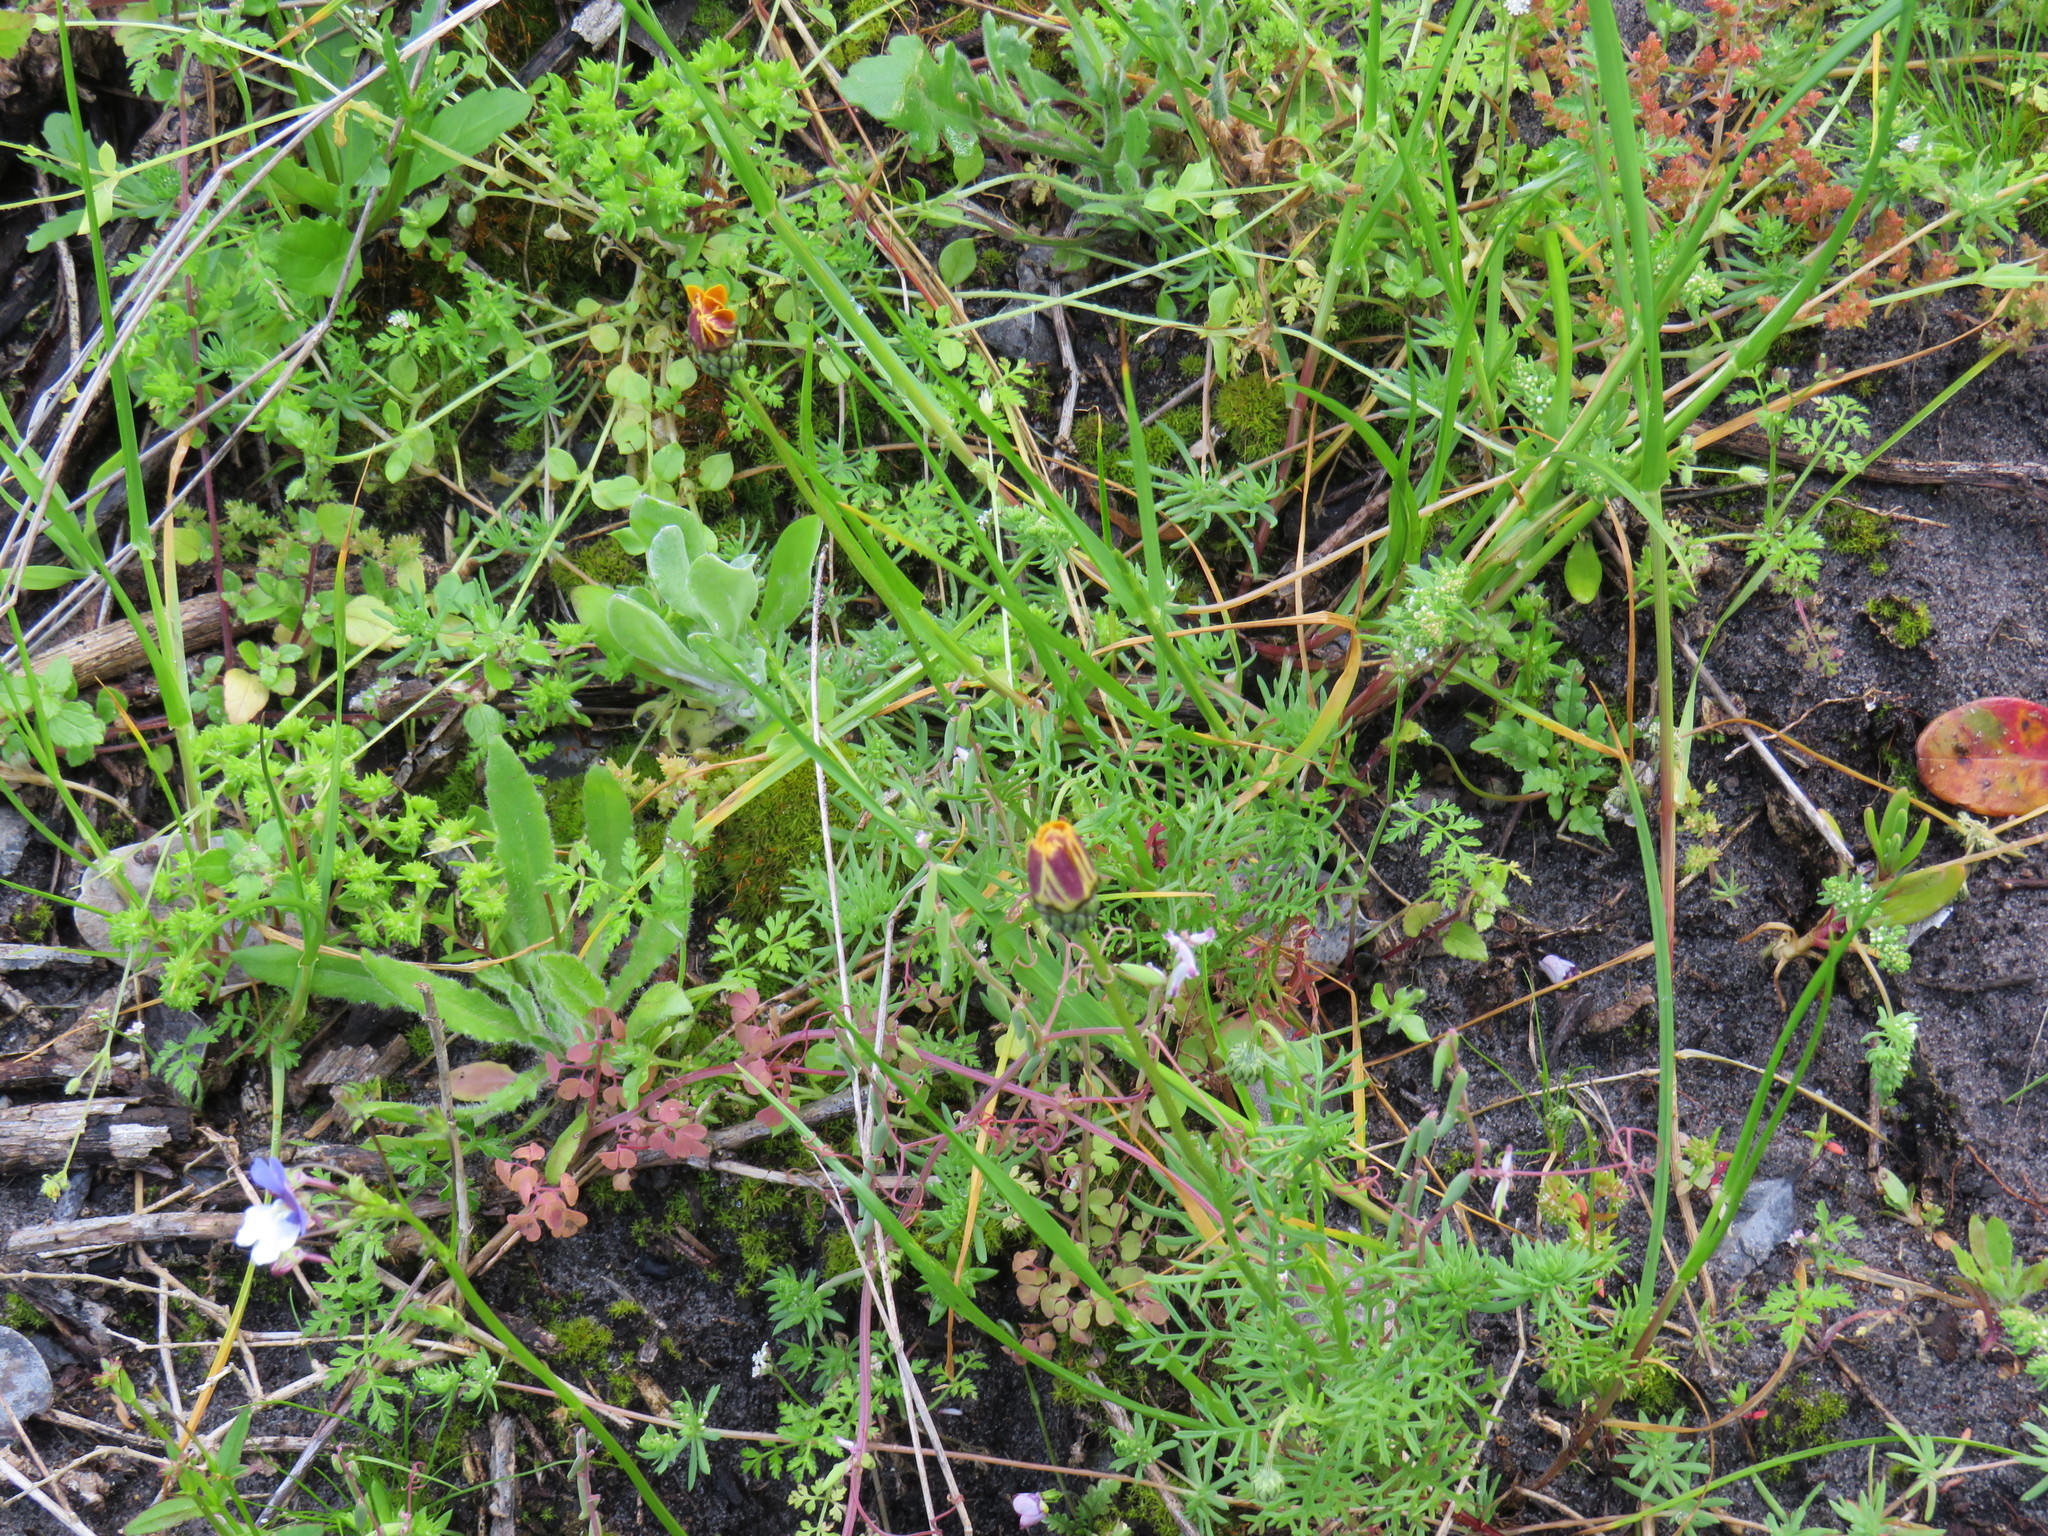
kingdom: Plantae
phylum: Tracheophyta
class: Magnoliopsida
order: Asterales
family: Asteraceae
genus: Ursinia
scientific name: Ursinia anthemoides
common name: Ursinia
